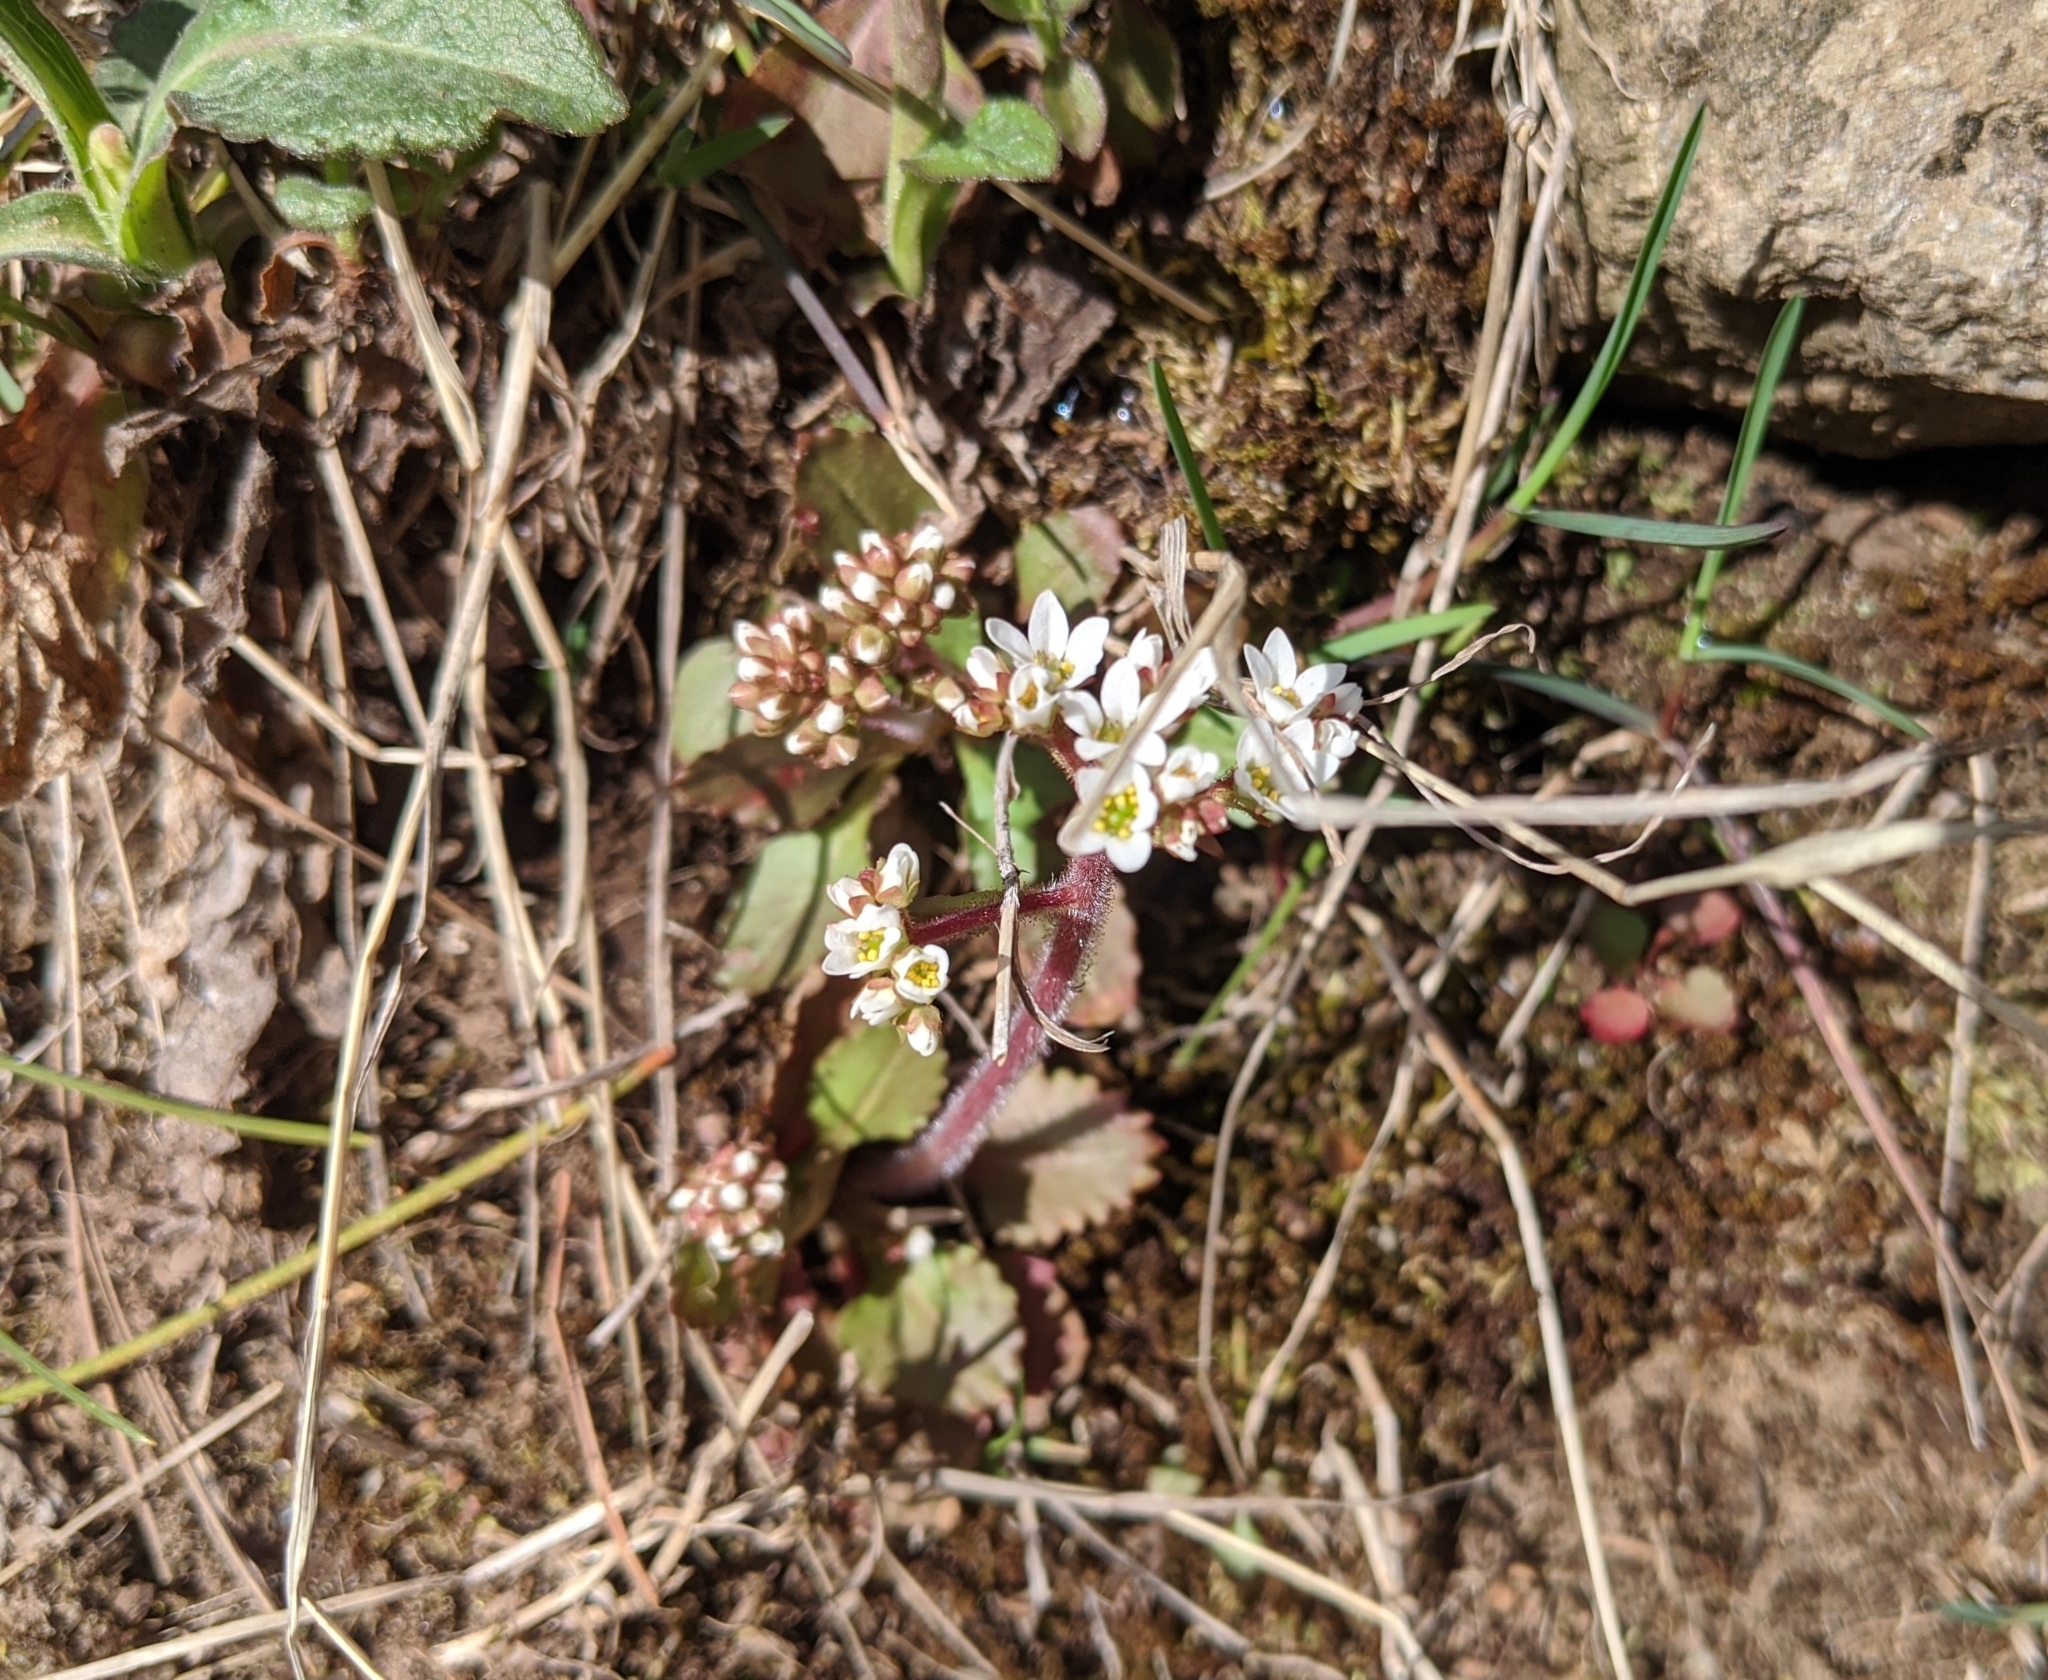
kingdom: Plantae
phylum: Tracheophyta
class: Magnoliopsida
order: Saxifragales
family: Saxifragaceae
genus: Micranthes
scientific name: Micranthes virginiensis
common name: Early saxifrage
